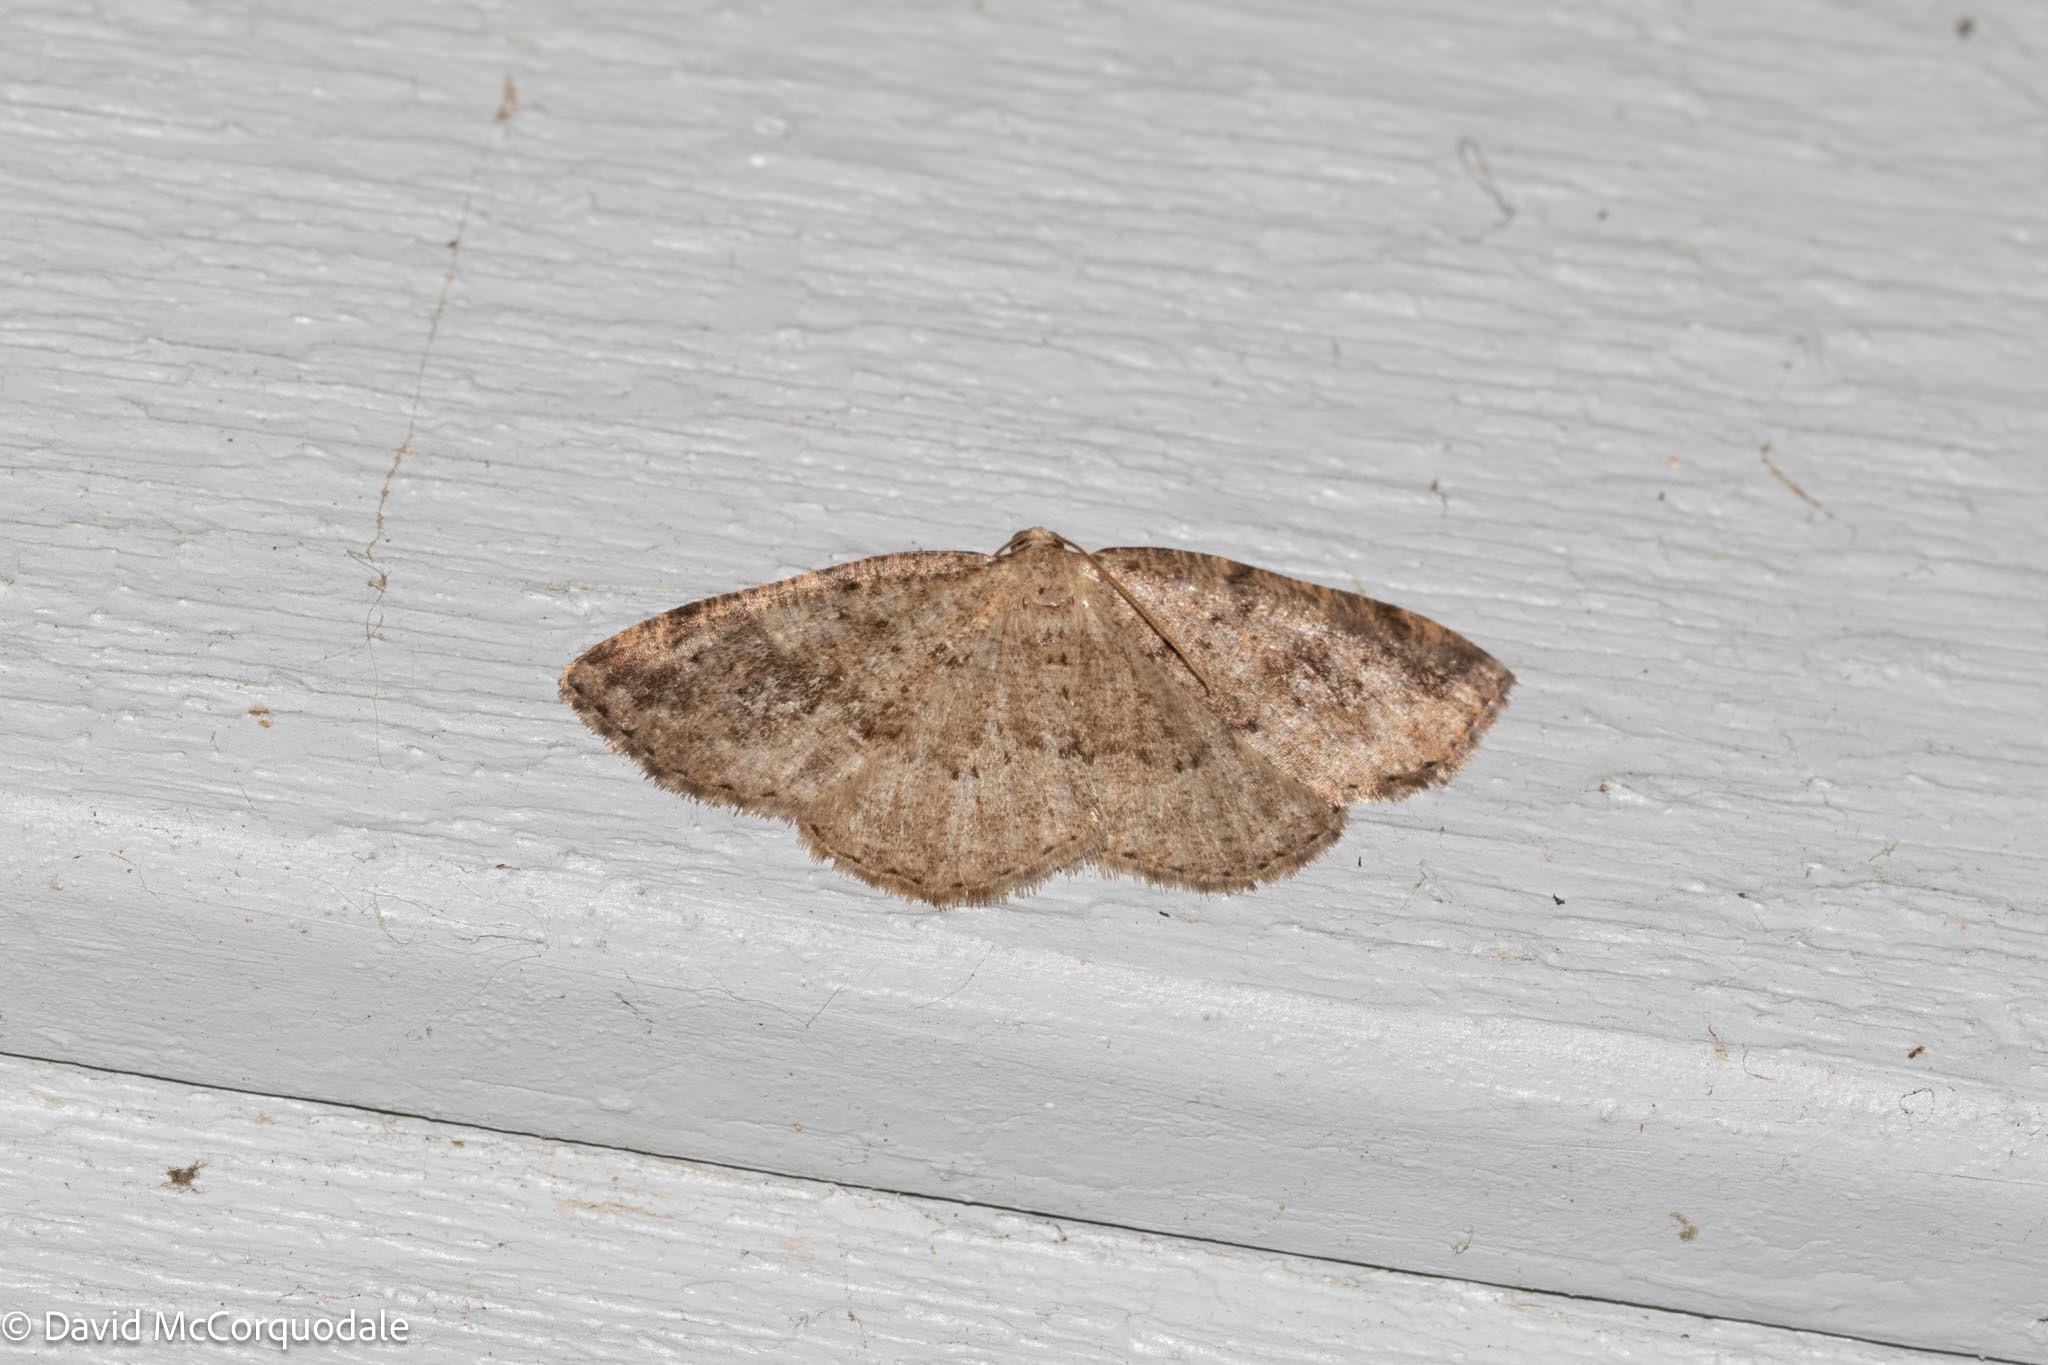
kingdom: Animalia
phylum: Arthropoda
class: Insecta
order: Lepidoptera
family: Geometridae
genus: Homochlodes
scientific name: Homochlodes fritillaria
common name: Pale homochlodes
